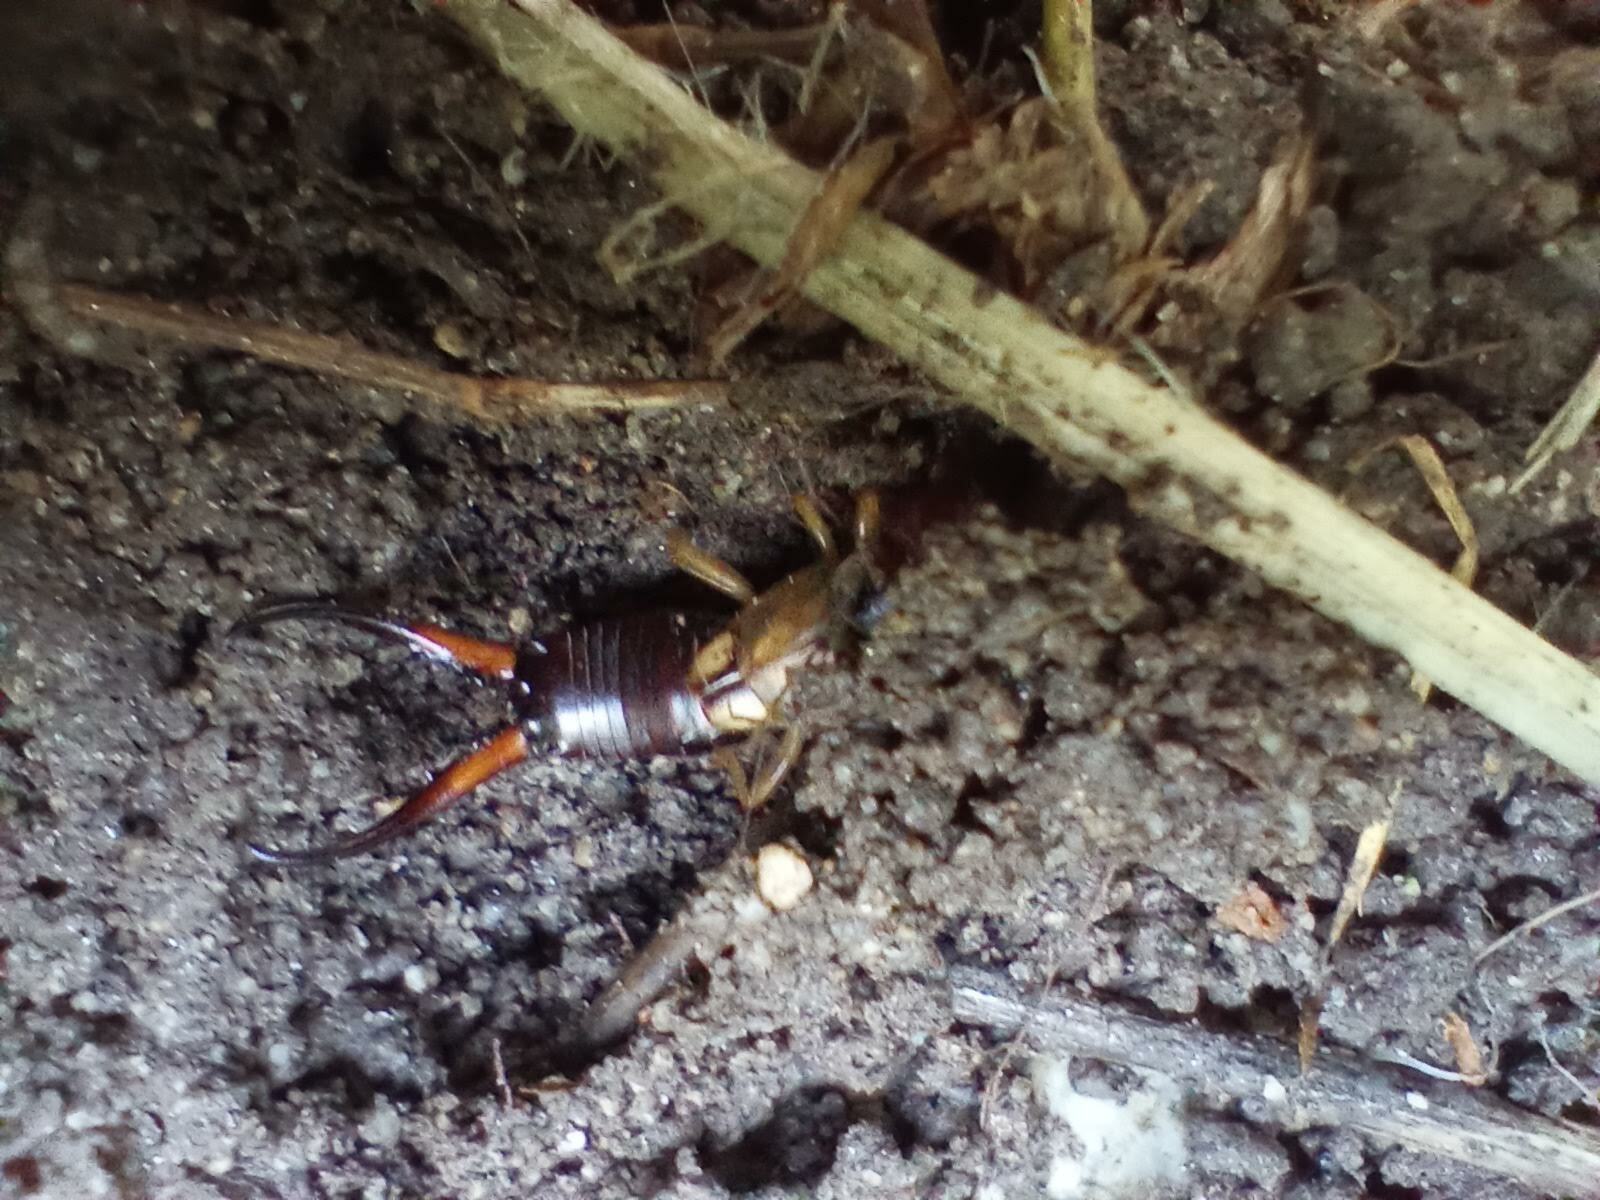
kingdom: Animalia
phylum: Arthropoda
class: Insecta
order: Dermaptera
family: Forficulidae
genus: Forficula
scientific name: Forficula dentata
